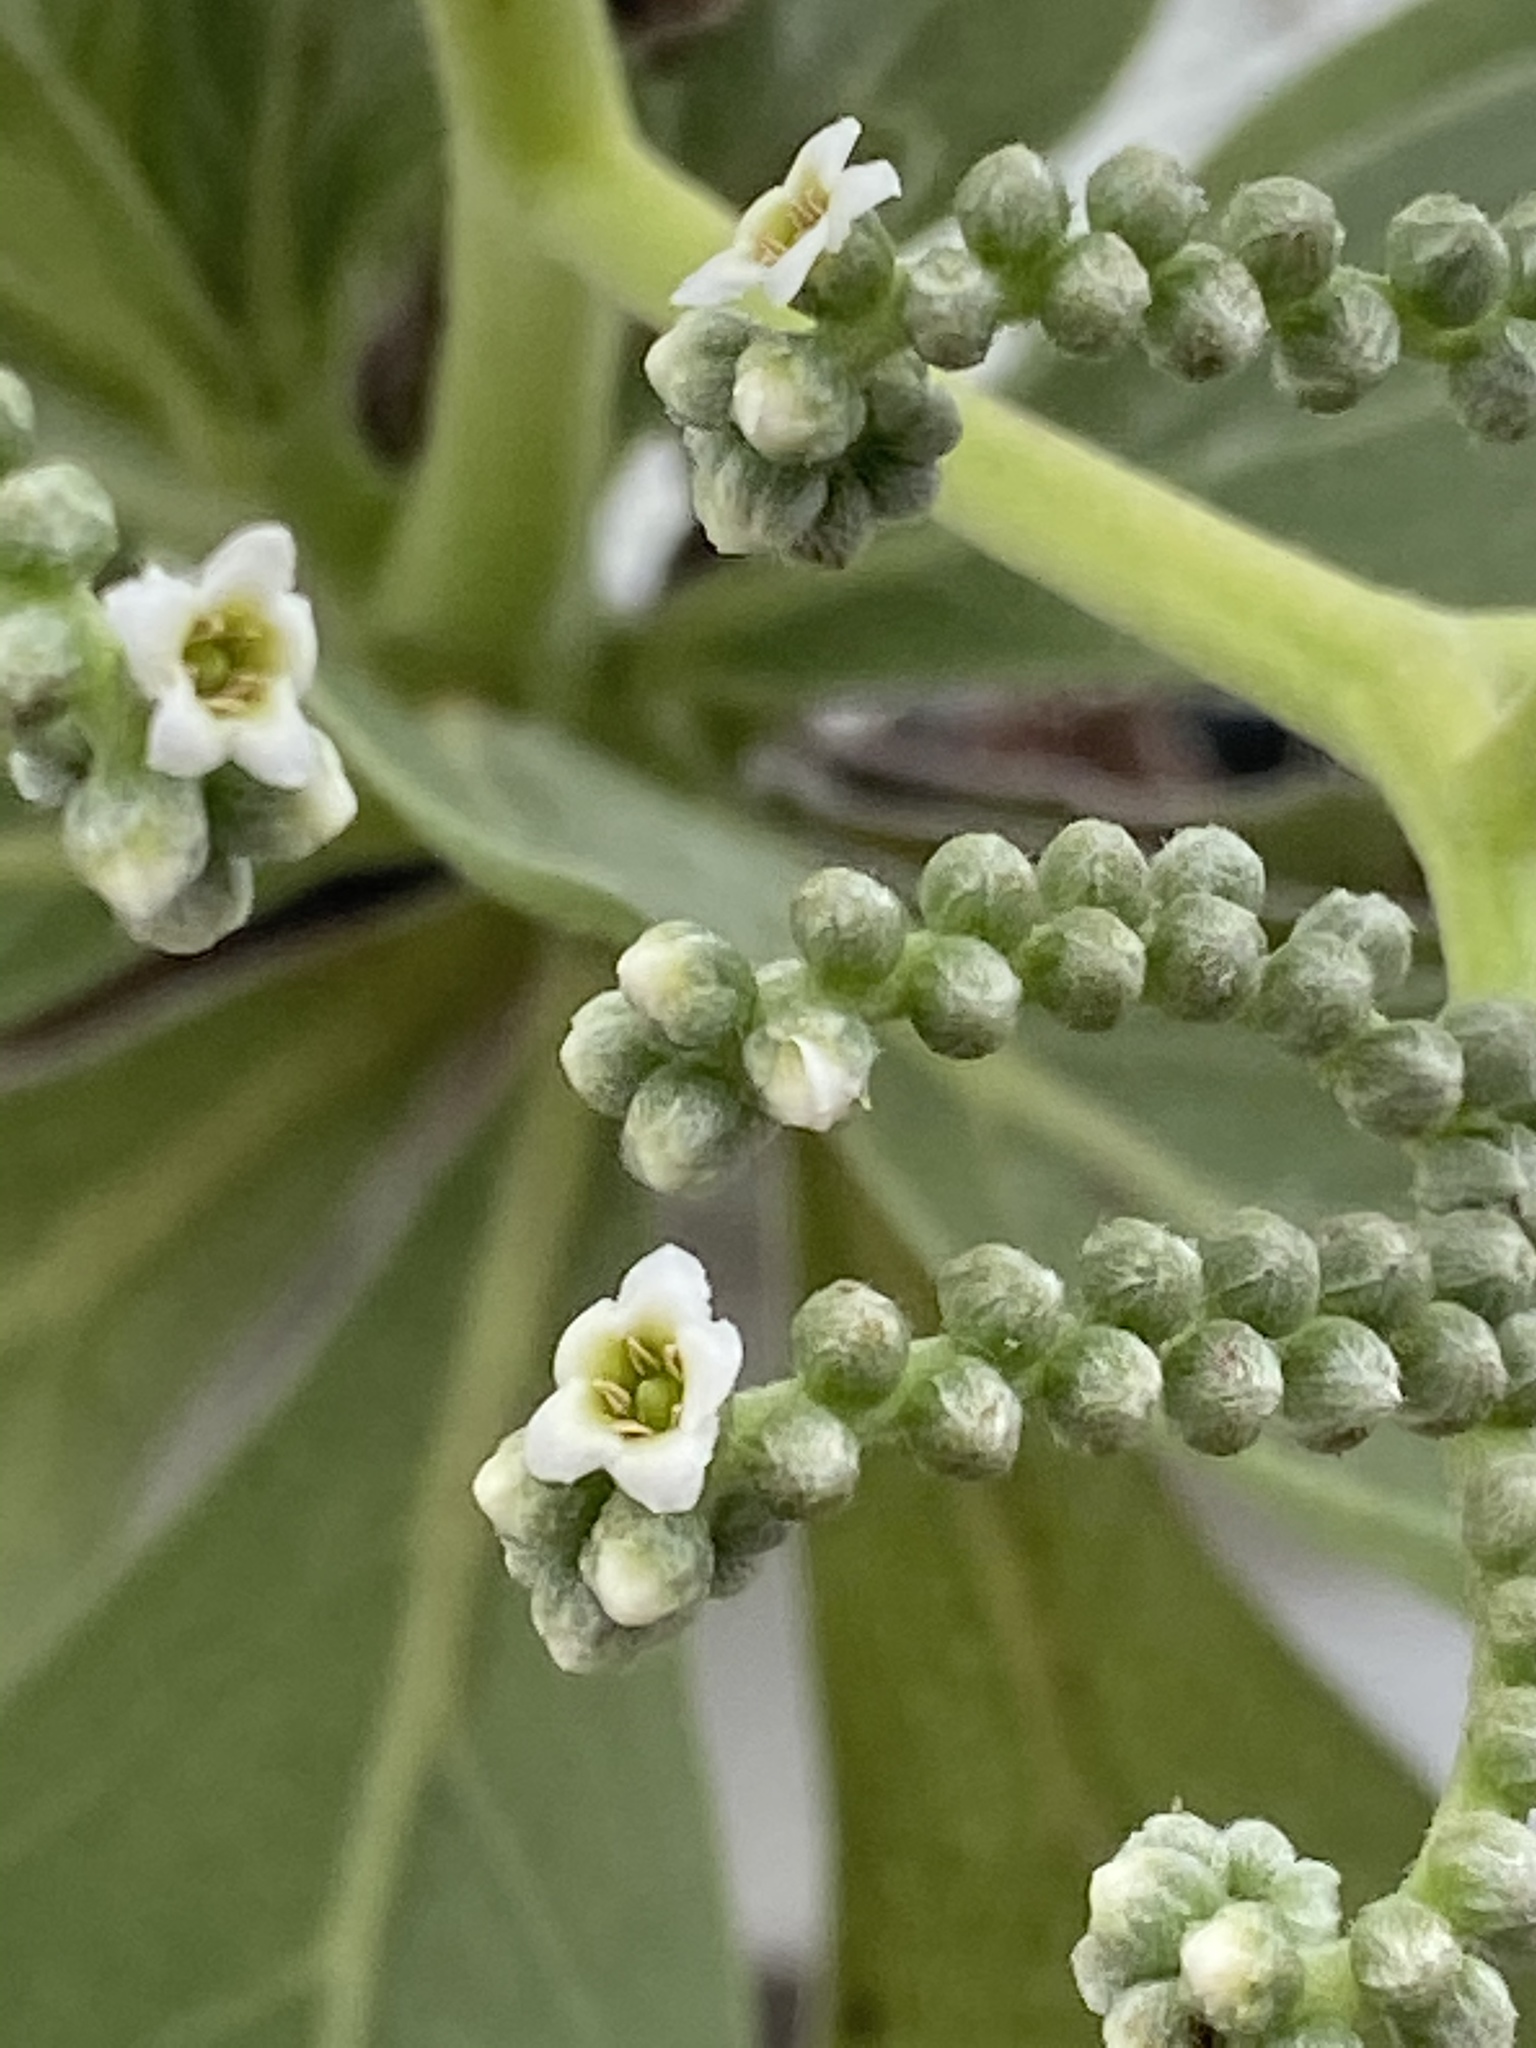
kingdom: Plantae
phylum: Tracheophyta
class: Magnoliopsida
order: Boraginales
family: Heliotropiaceae
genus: Heliotropium
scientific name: Heliotropium velutinum
